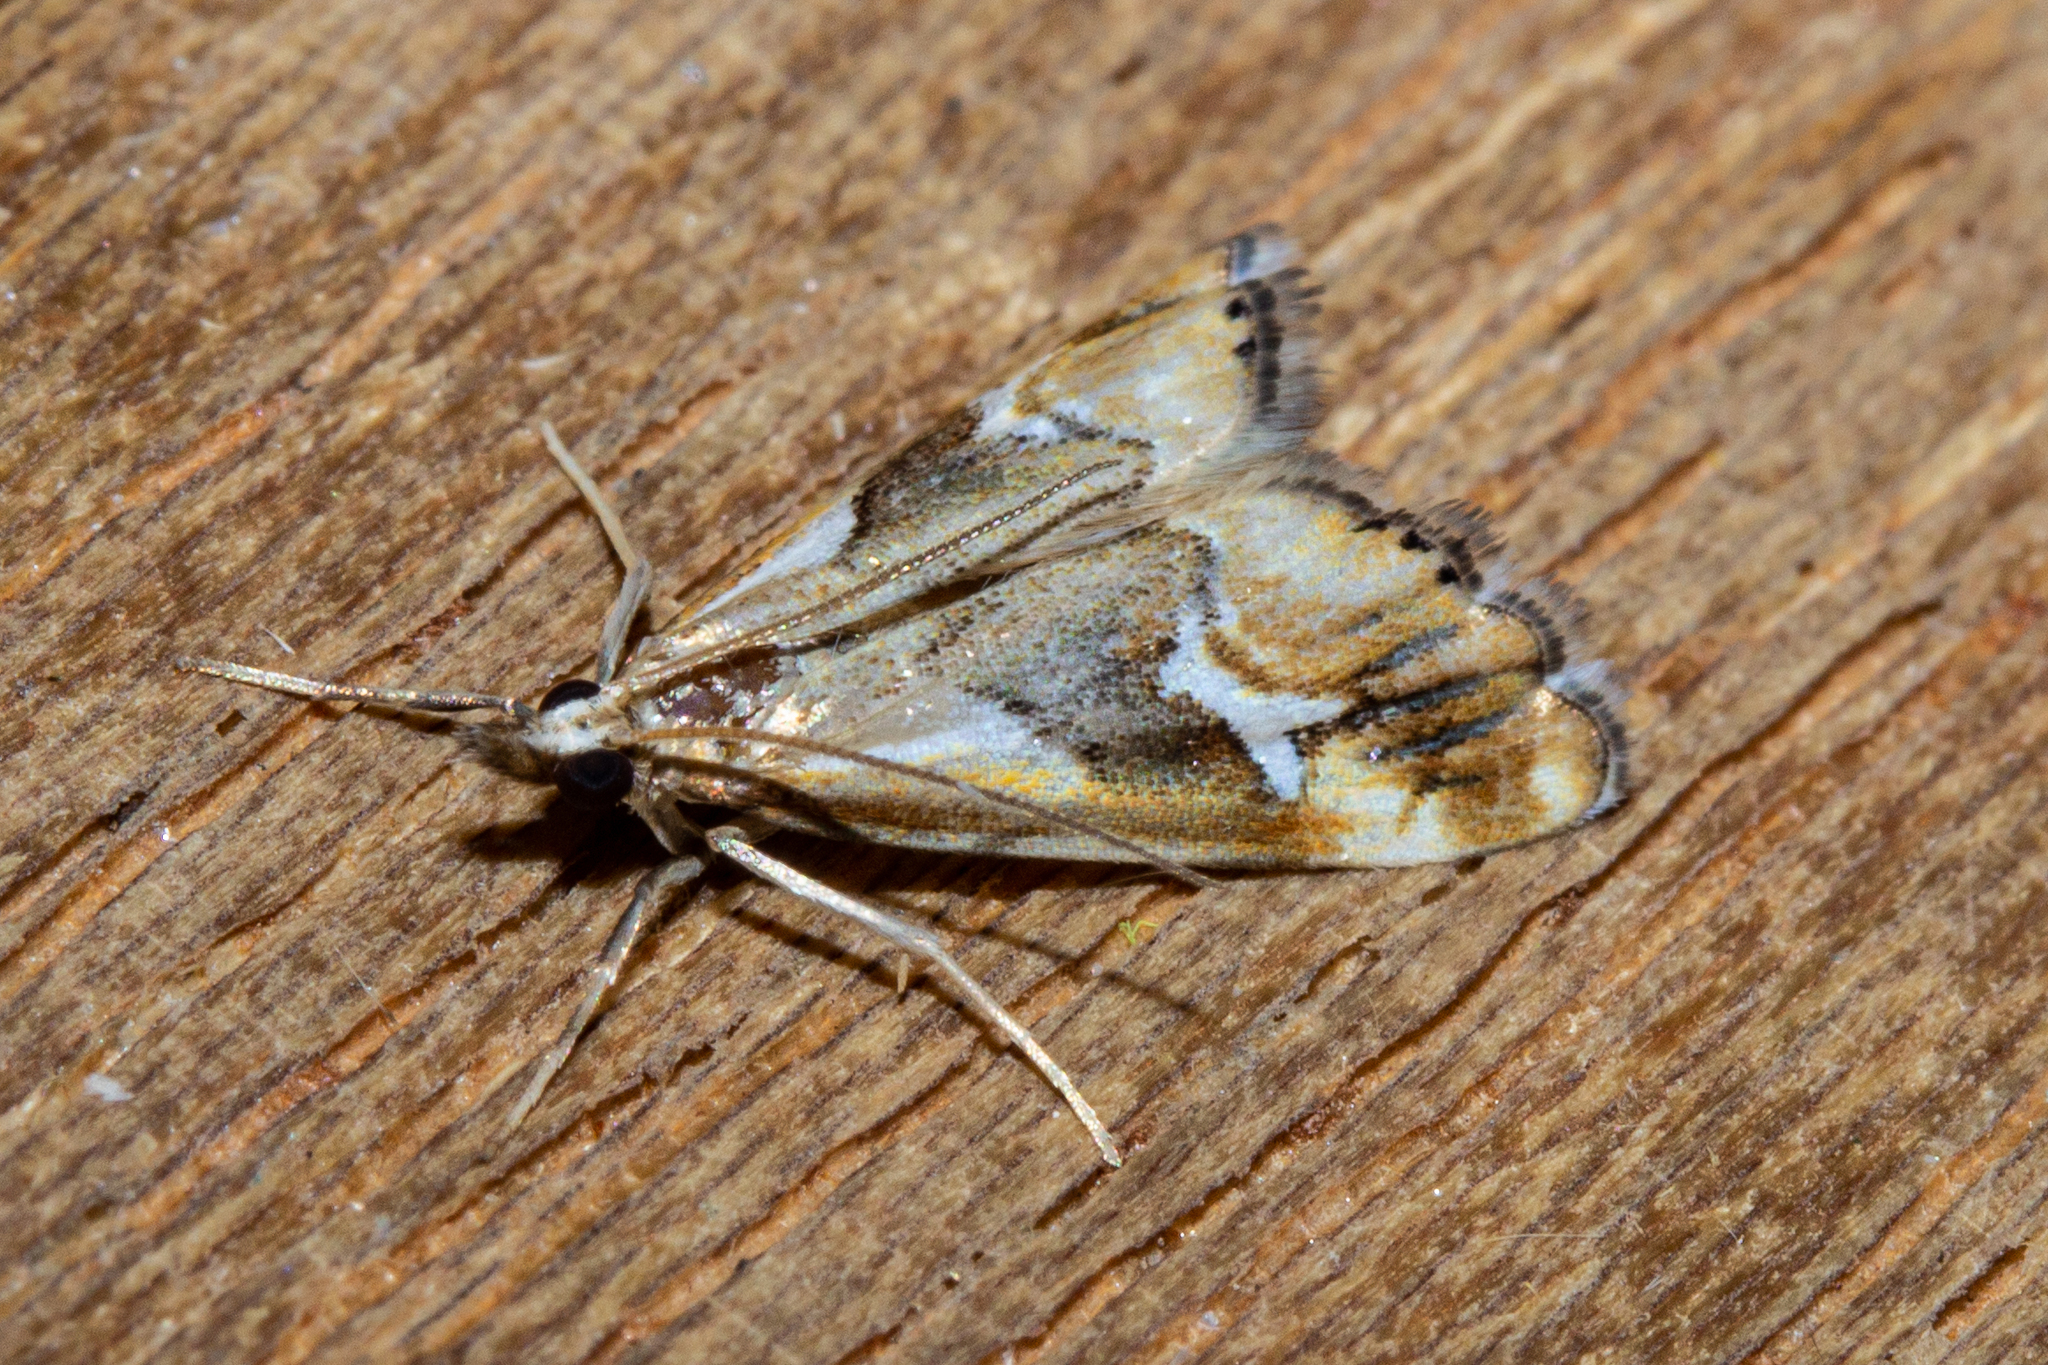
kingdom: Animalia
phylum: Arthropoda
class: Insecta
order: Lepidoptera
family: Crambidae
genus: Glaucocharis
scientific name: Glaucocharis interruptus
